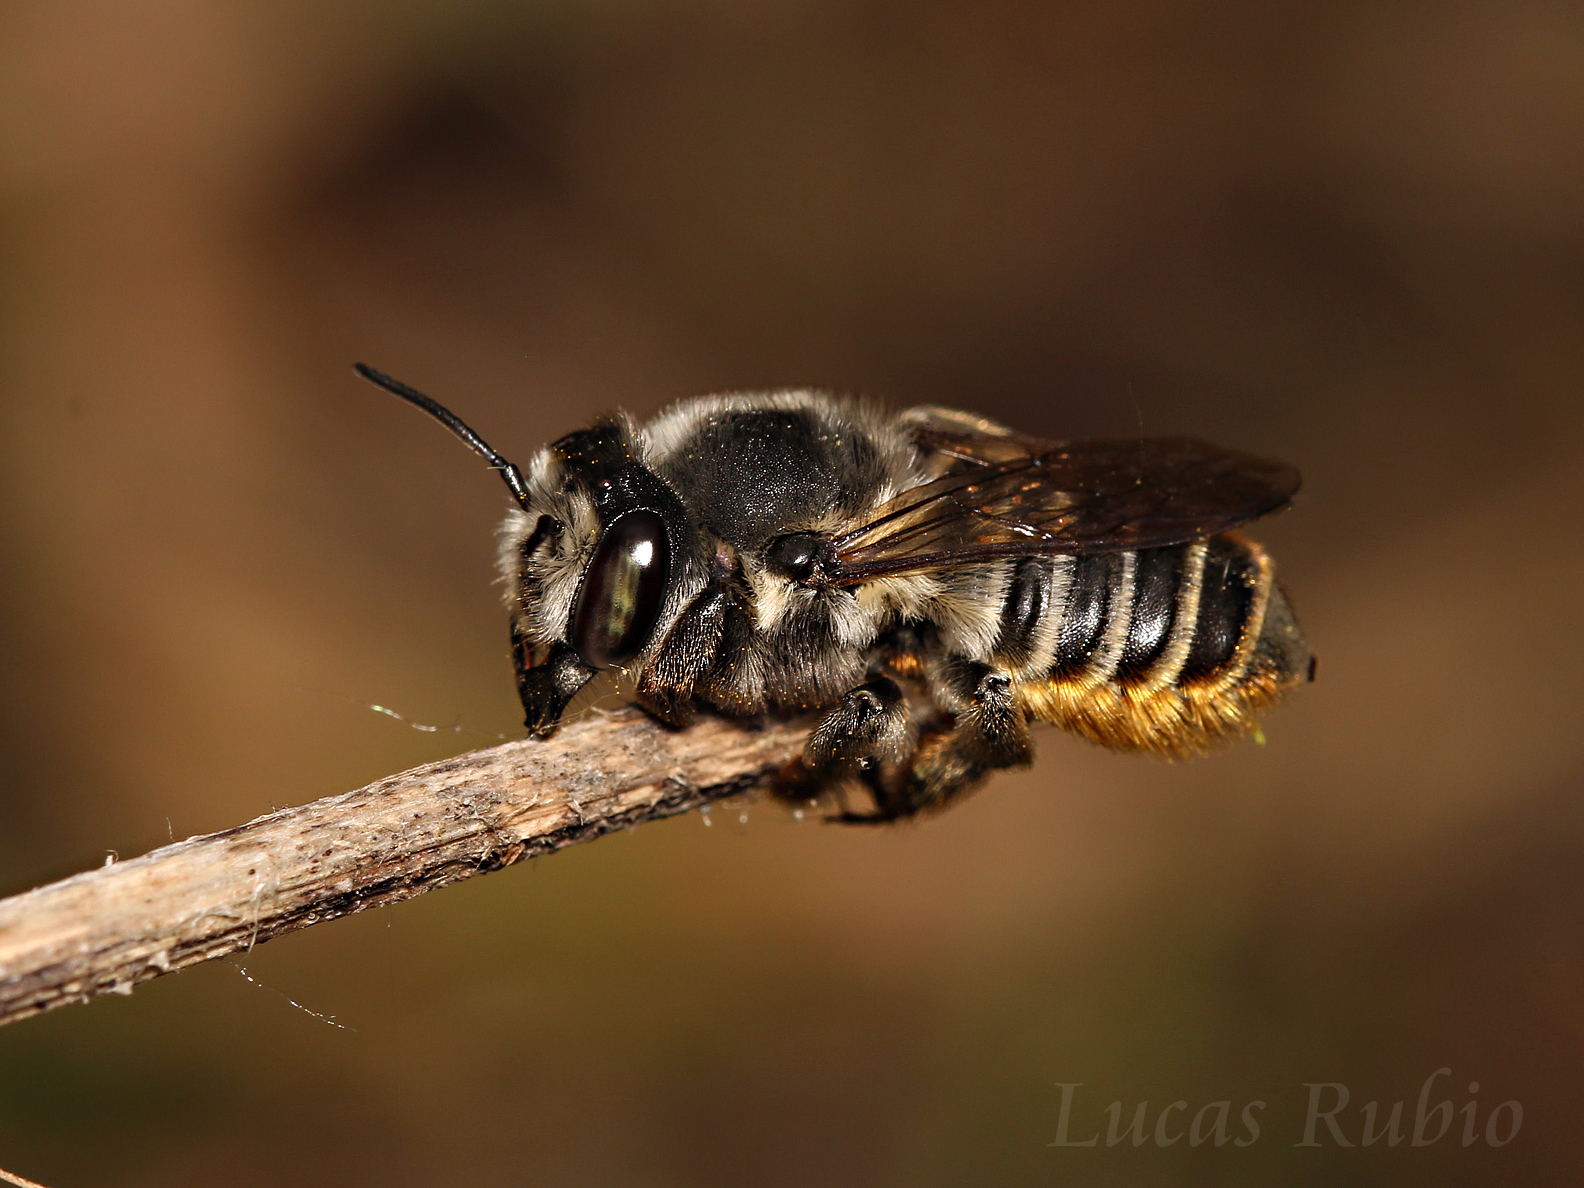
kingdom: Animalia
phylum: Arthropoda
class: Insecta
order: Hymenoptera
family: Megachilidae
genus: Megachile
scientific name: Megachile
